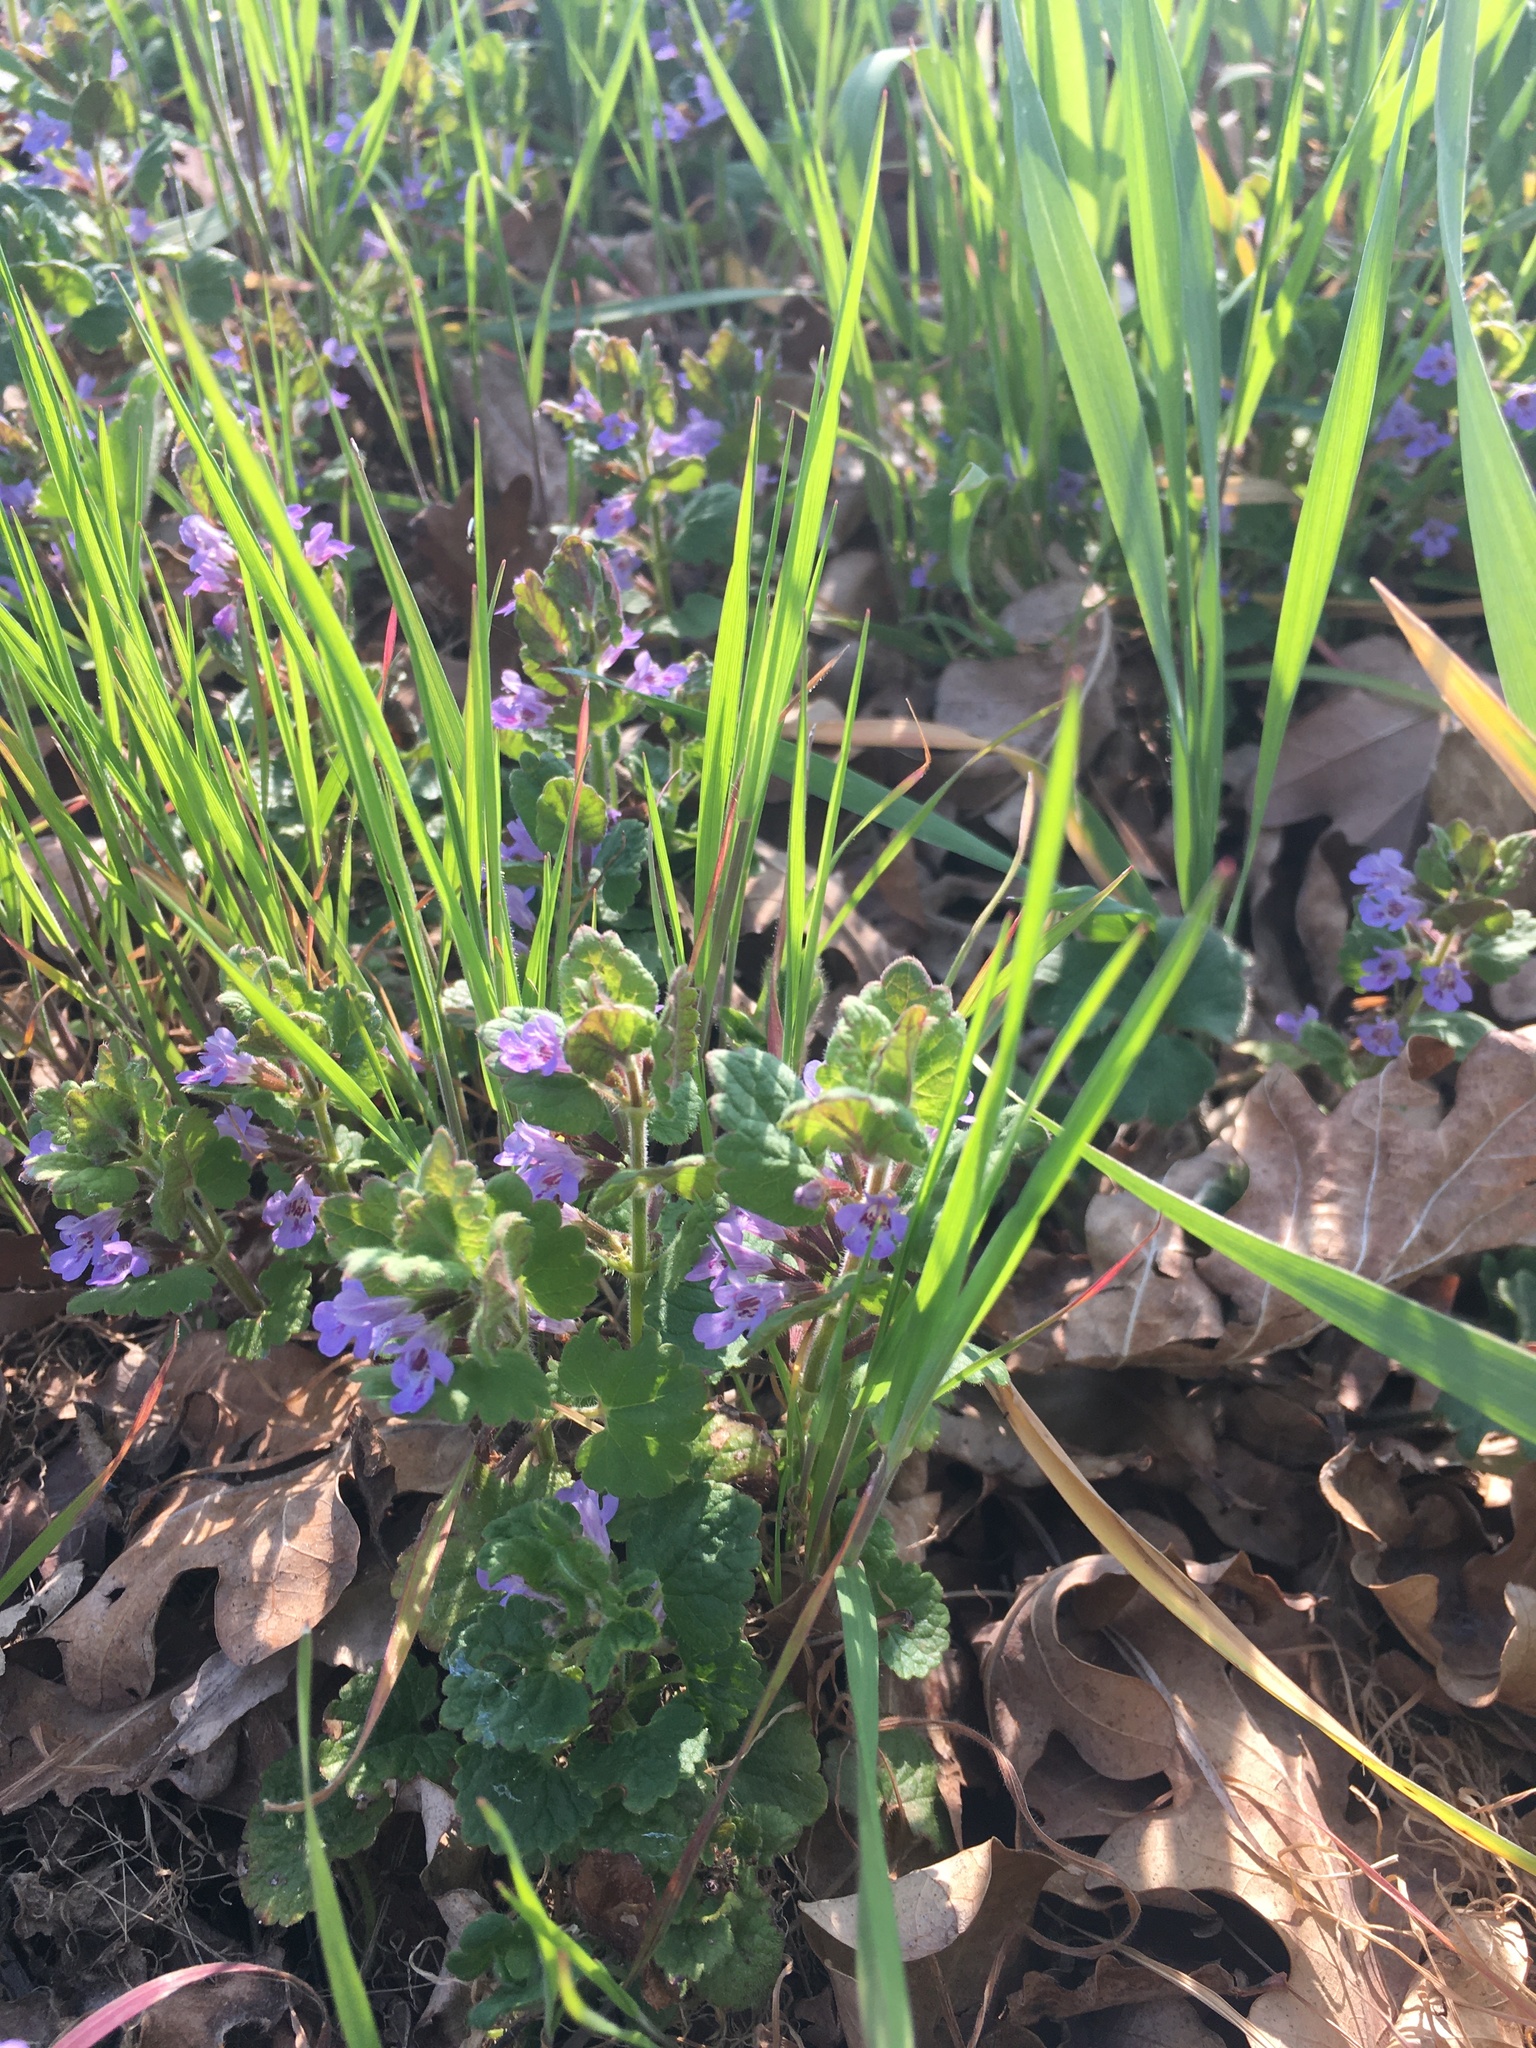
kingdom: Plantae
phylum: Tracheophyta
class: Magnoliopsida
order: Lamiales
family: Lamiaceae
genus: Glechoma
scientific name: Glechoma hederacea
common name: Ground ivy
